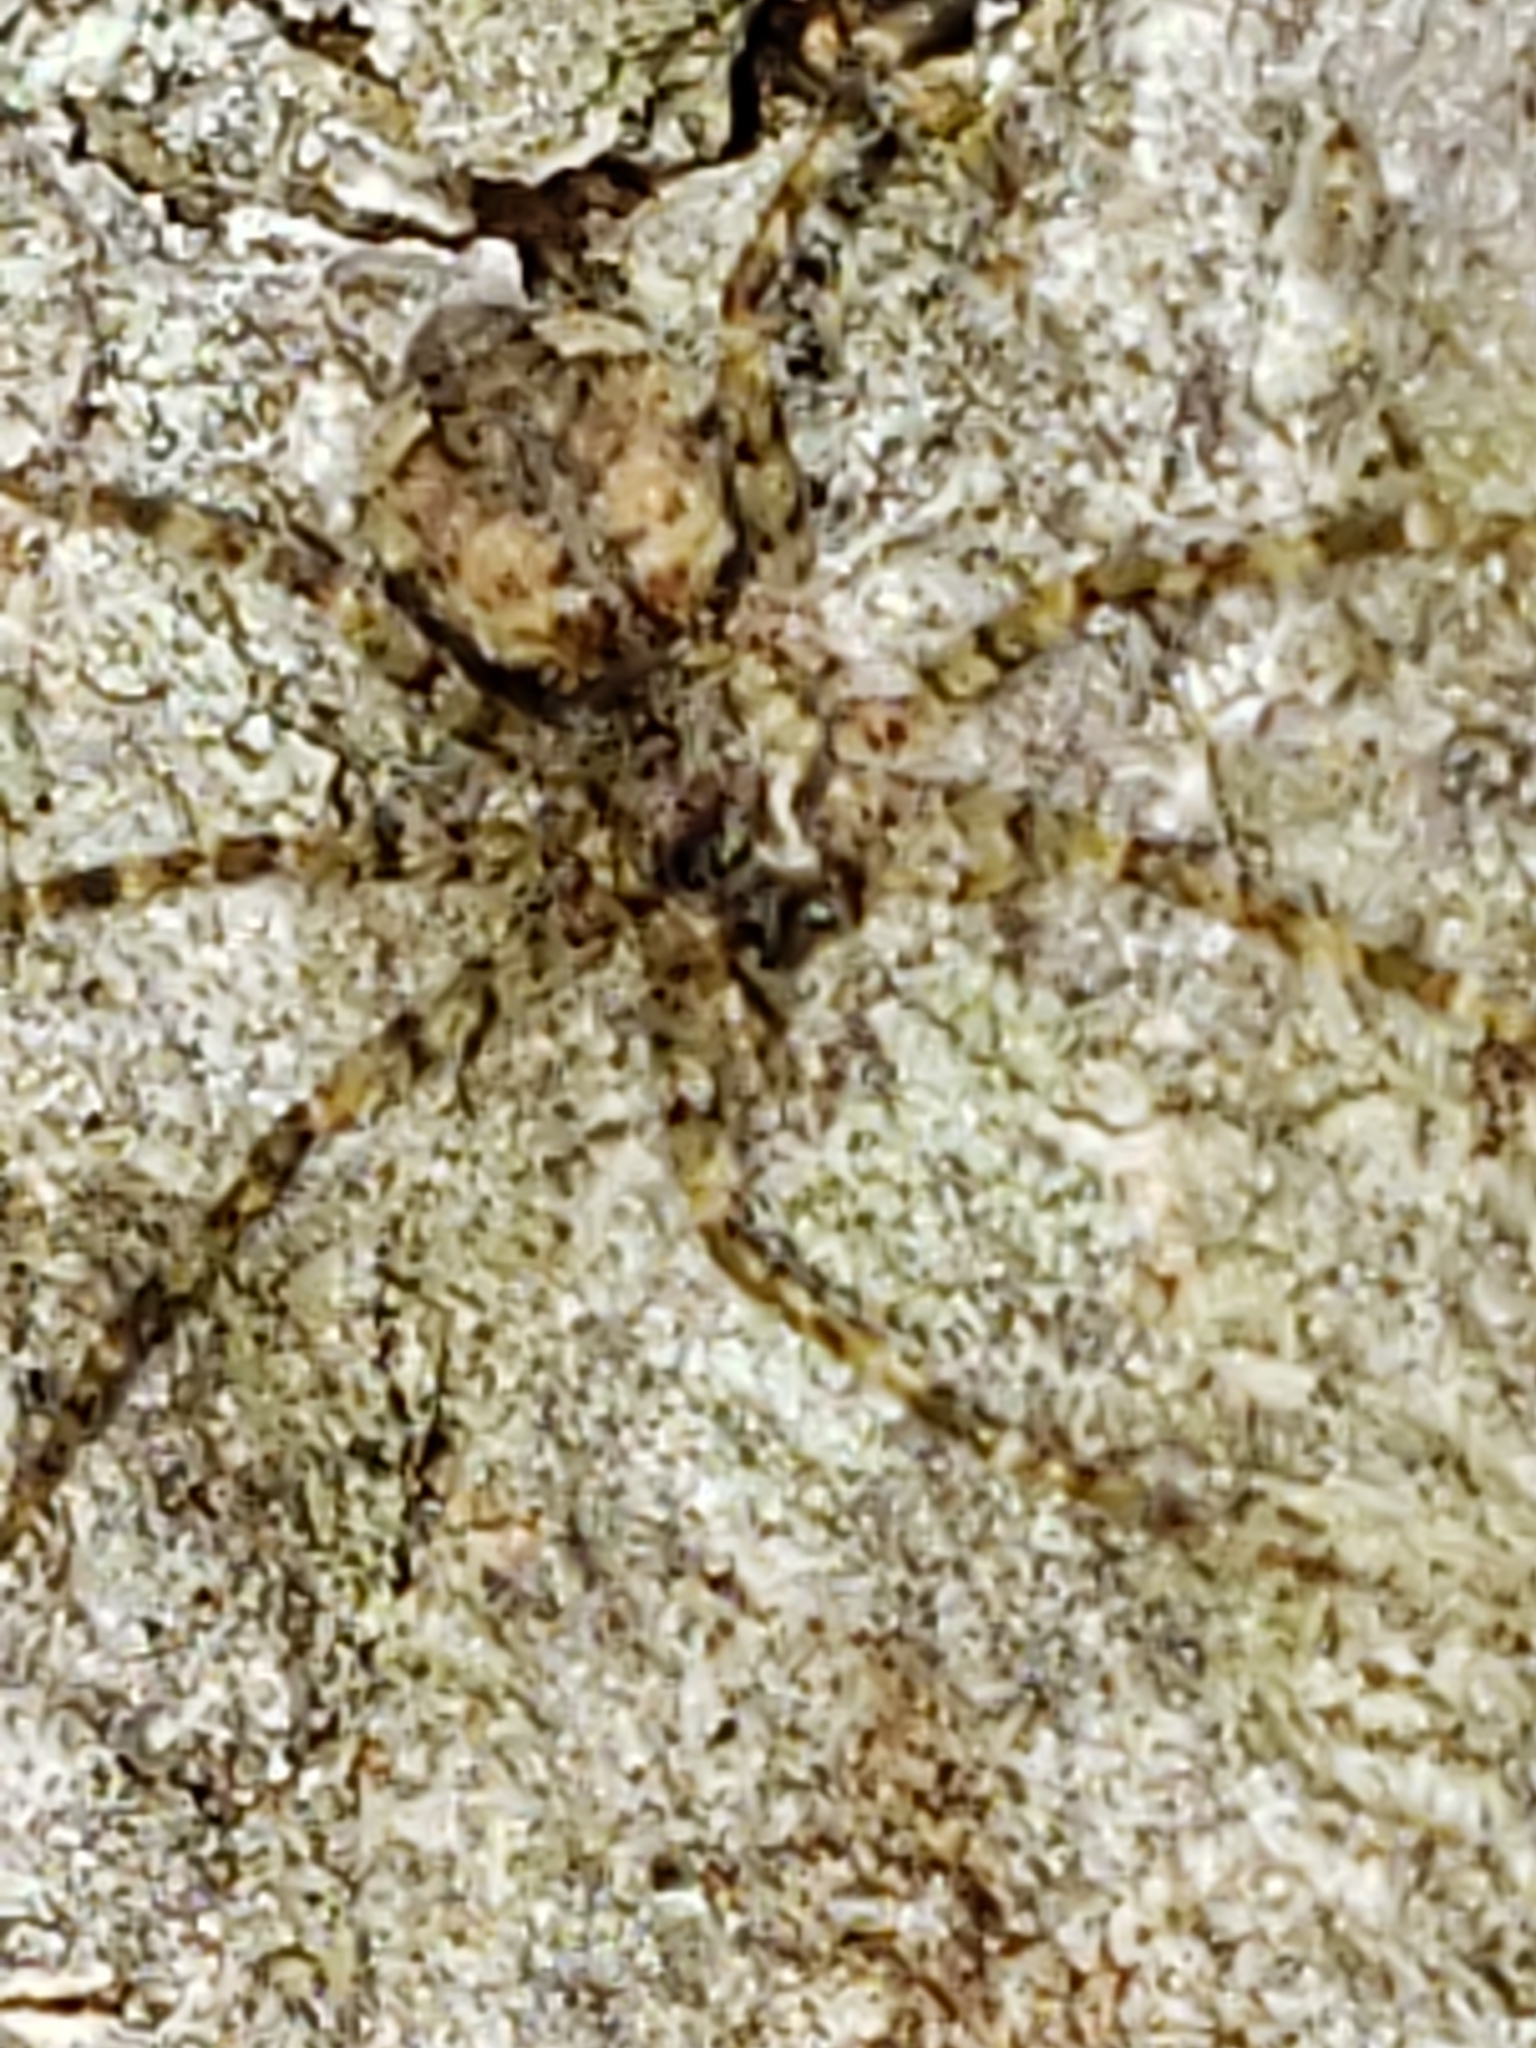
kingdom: Animalia
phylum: Arthropoda
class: Arachnida
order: Araneae
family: Pisauridae
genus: Dolomedes
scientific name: Dolomedes albineus
